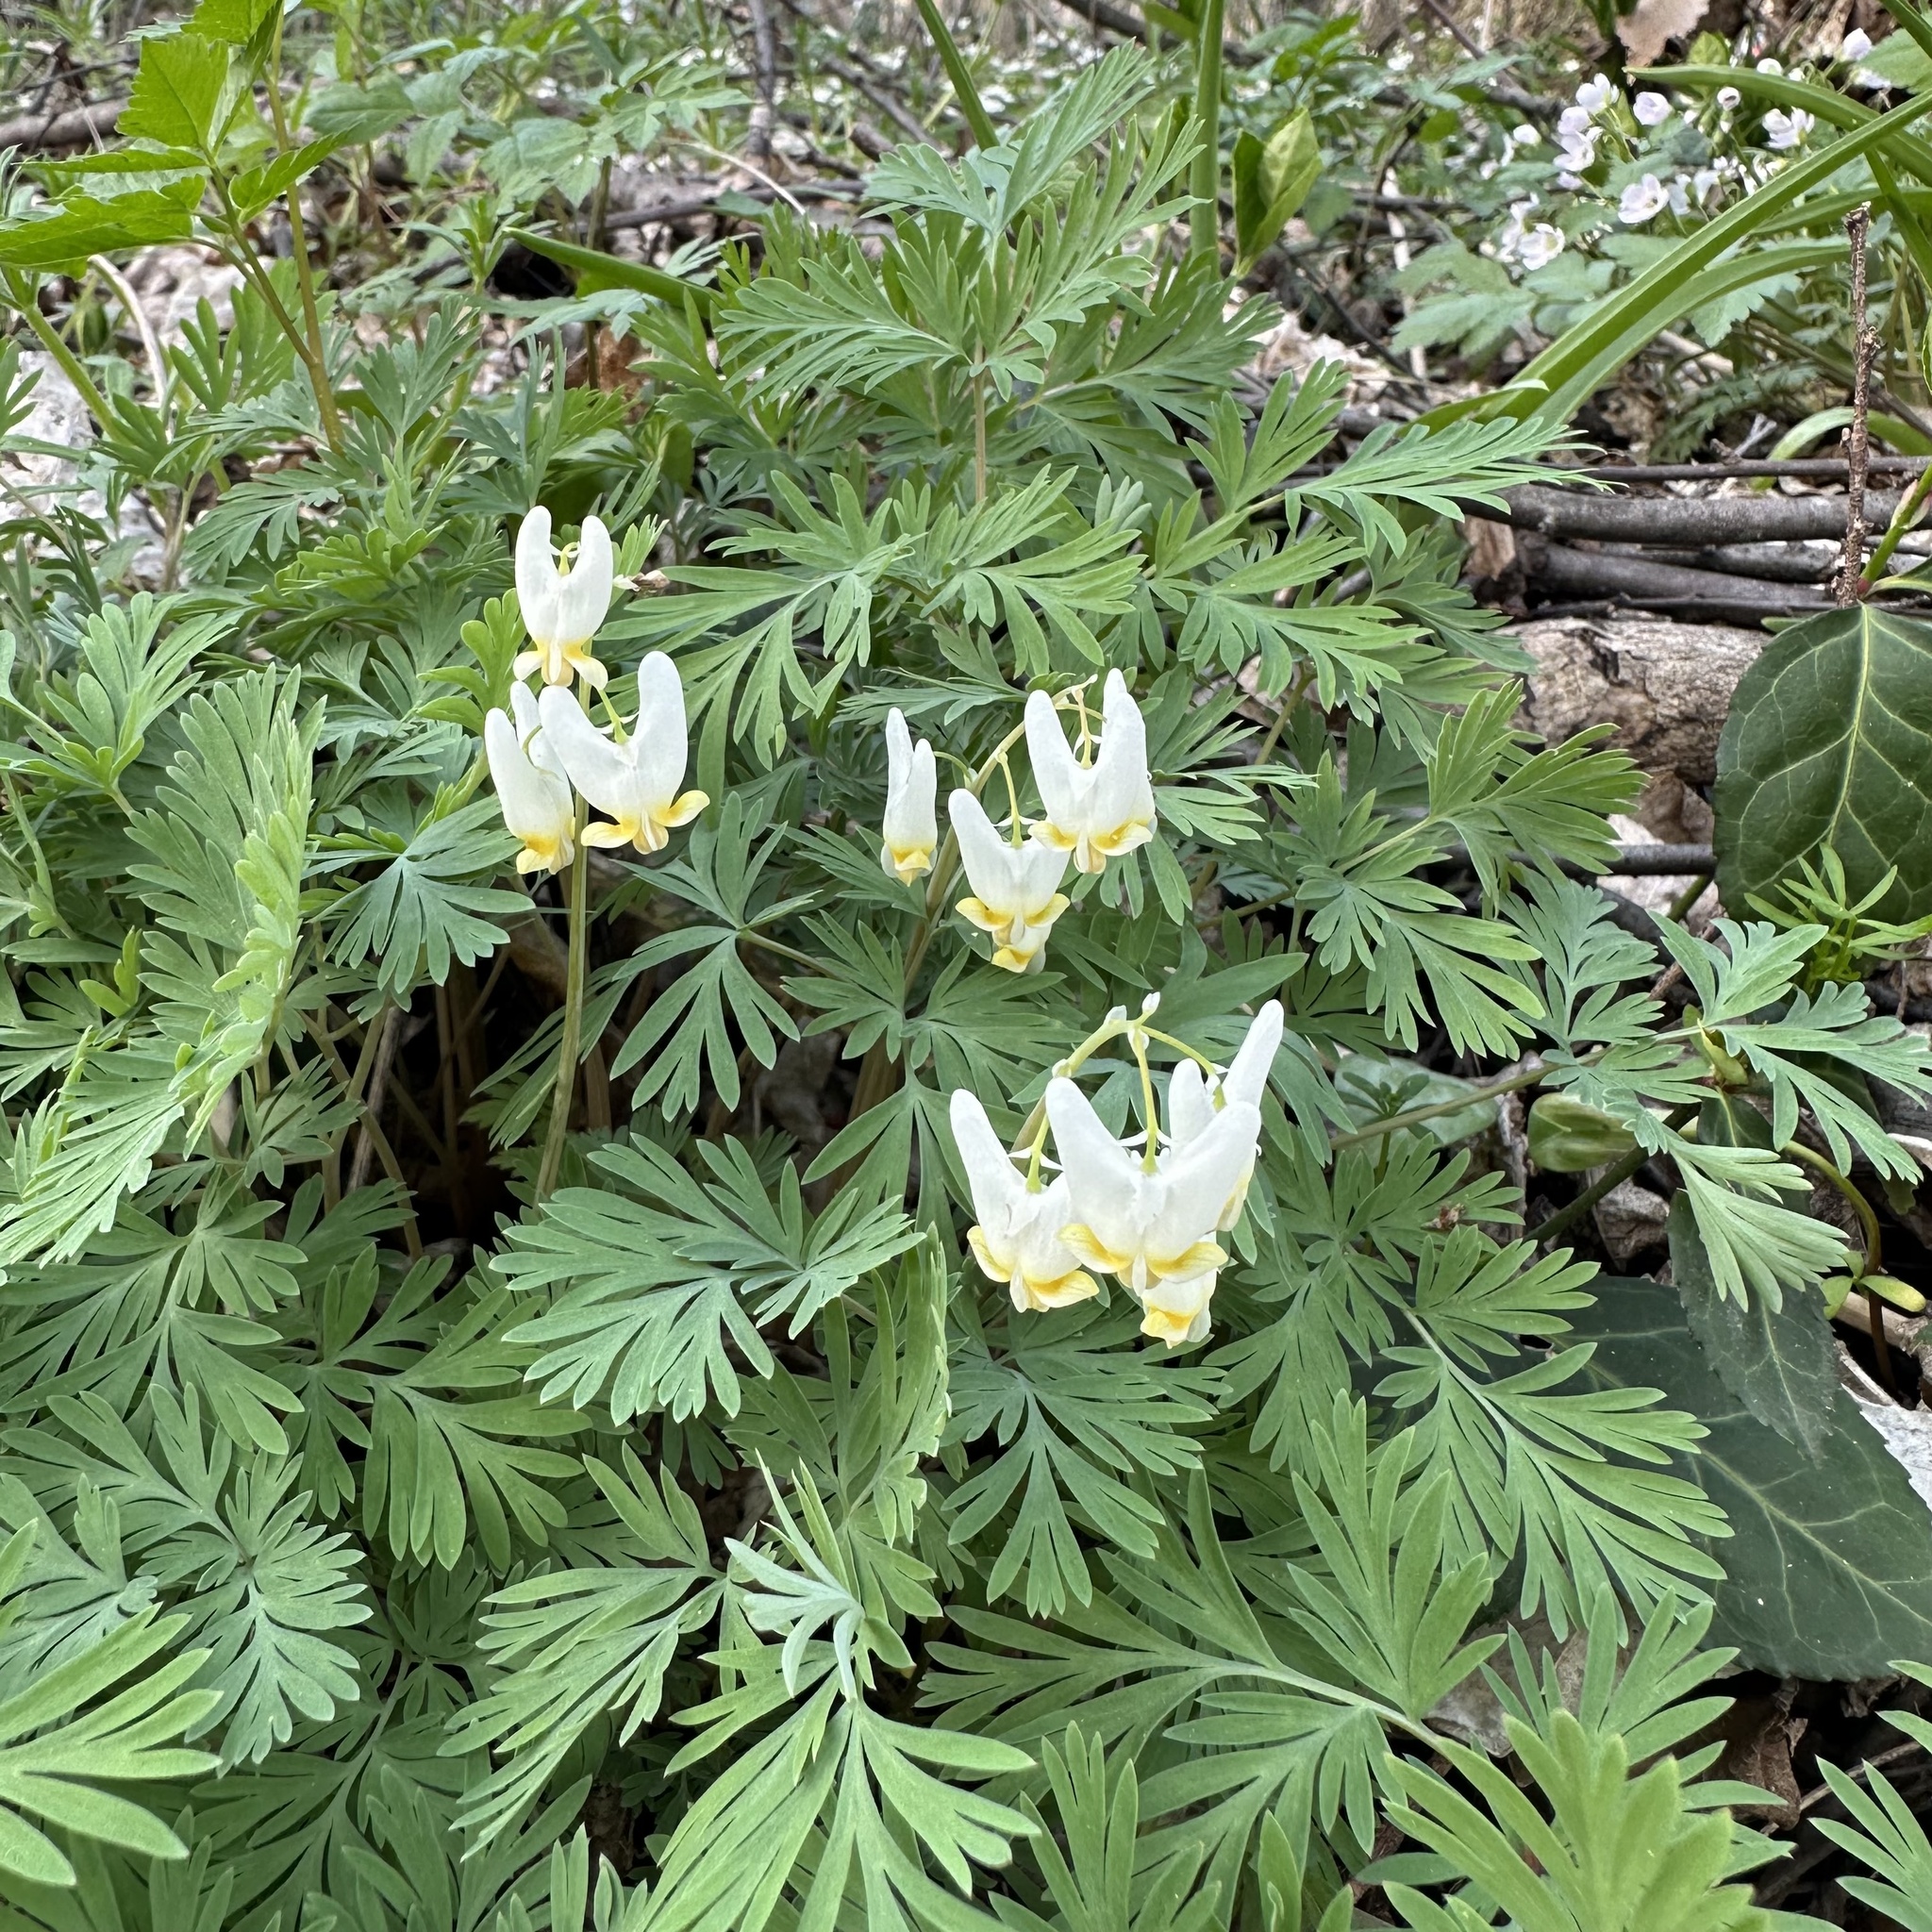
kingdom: Plantae
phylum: Tracheophyta
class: Magnoliopsida
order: Ranunculales
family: Papaveraceae
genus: Dicentra
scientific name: Dicentra cucullaria
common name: Dutchman's breeches
